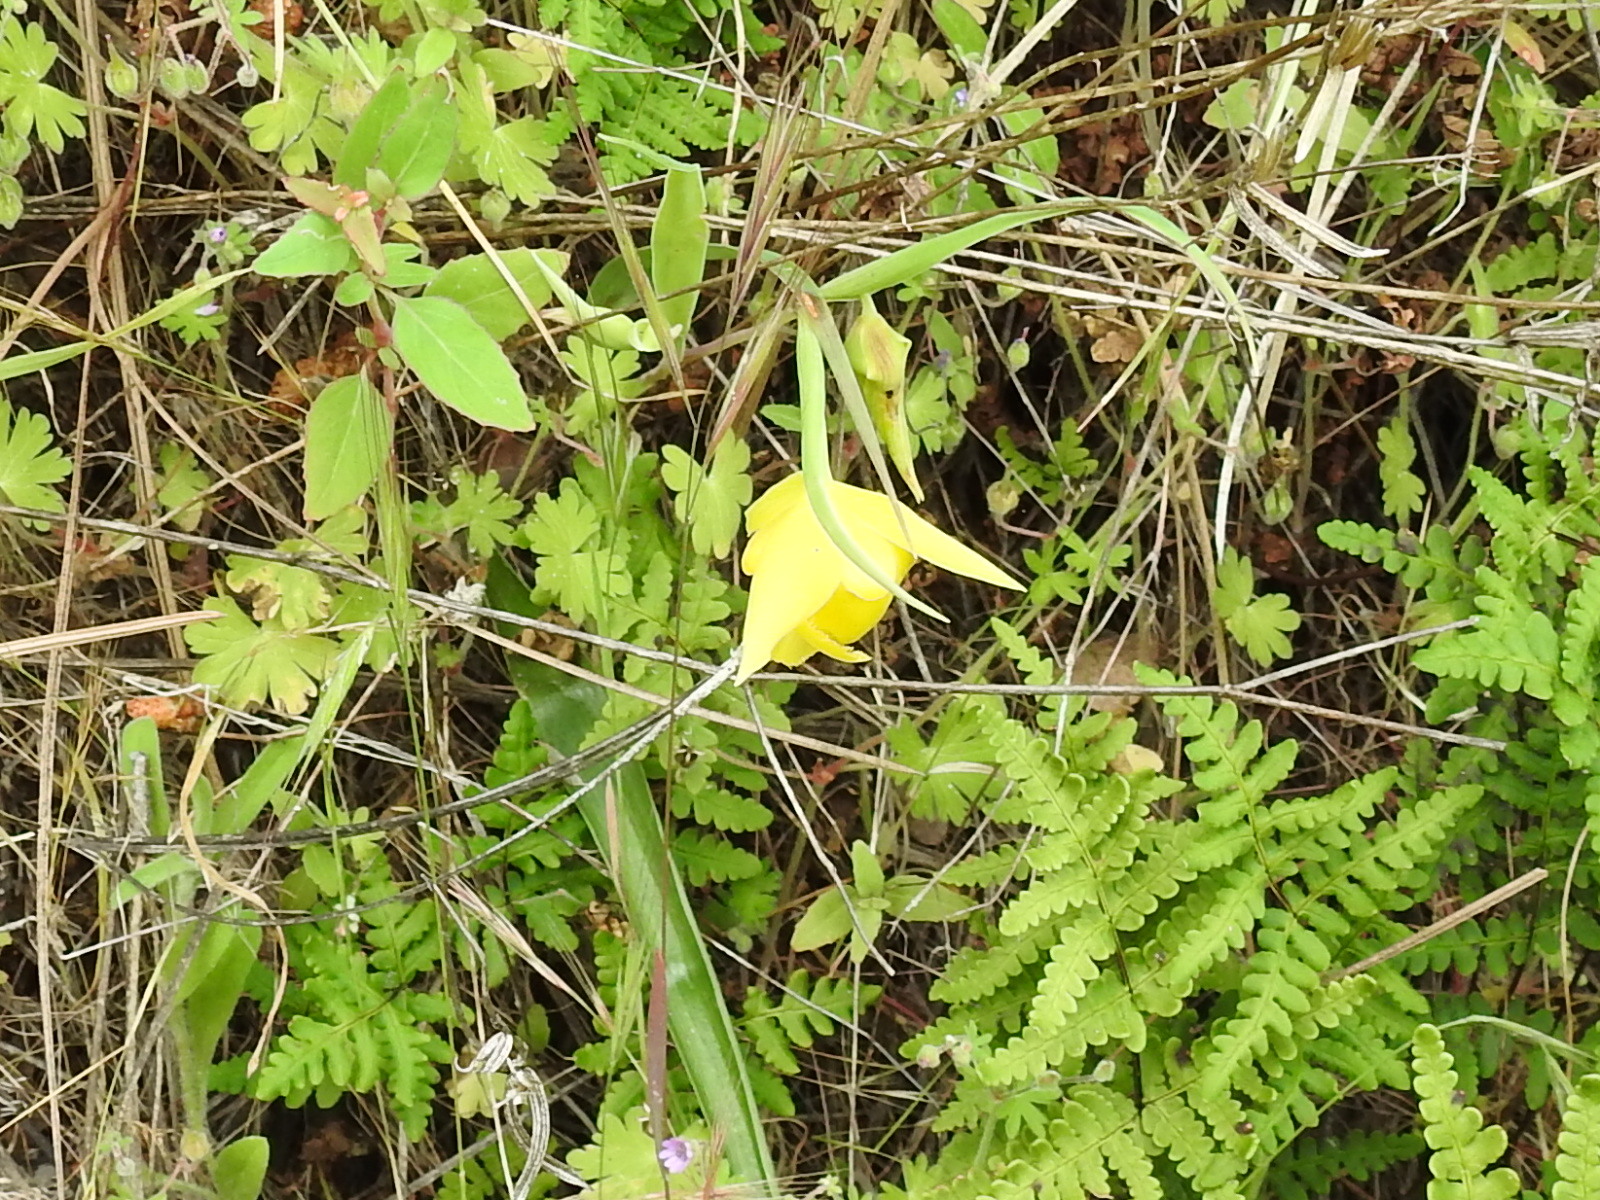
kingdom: Plantae
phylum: Tracheophyta
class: Liliopsida
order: Liliales
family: Liliaceae
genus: Calochortus
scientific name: Calochortus pulchellus
